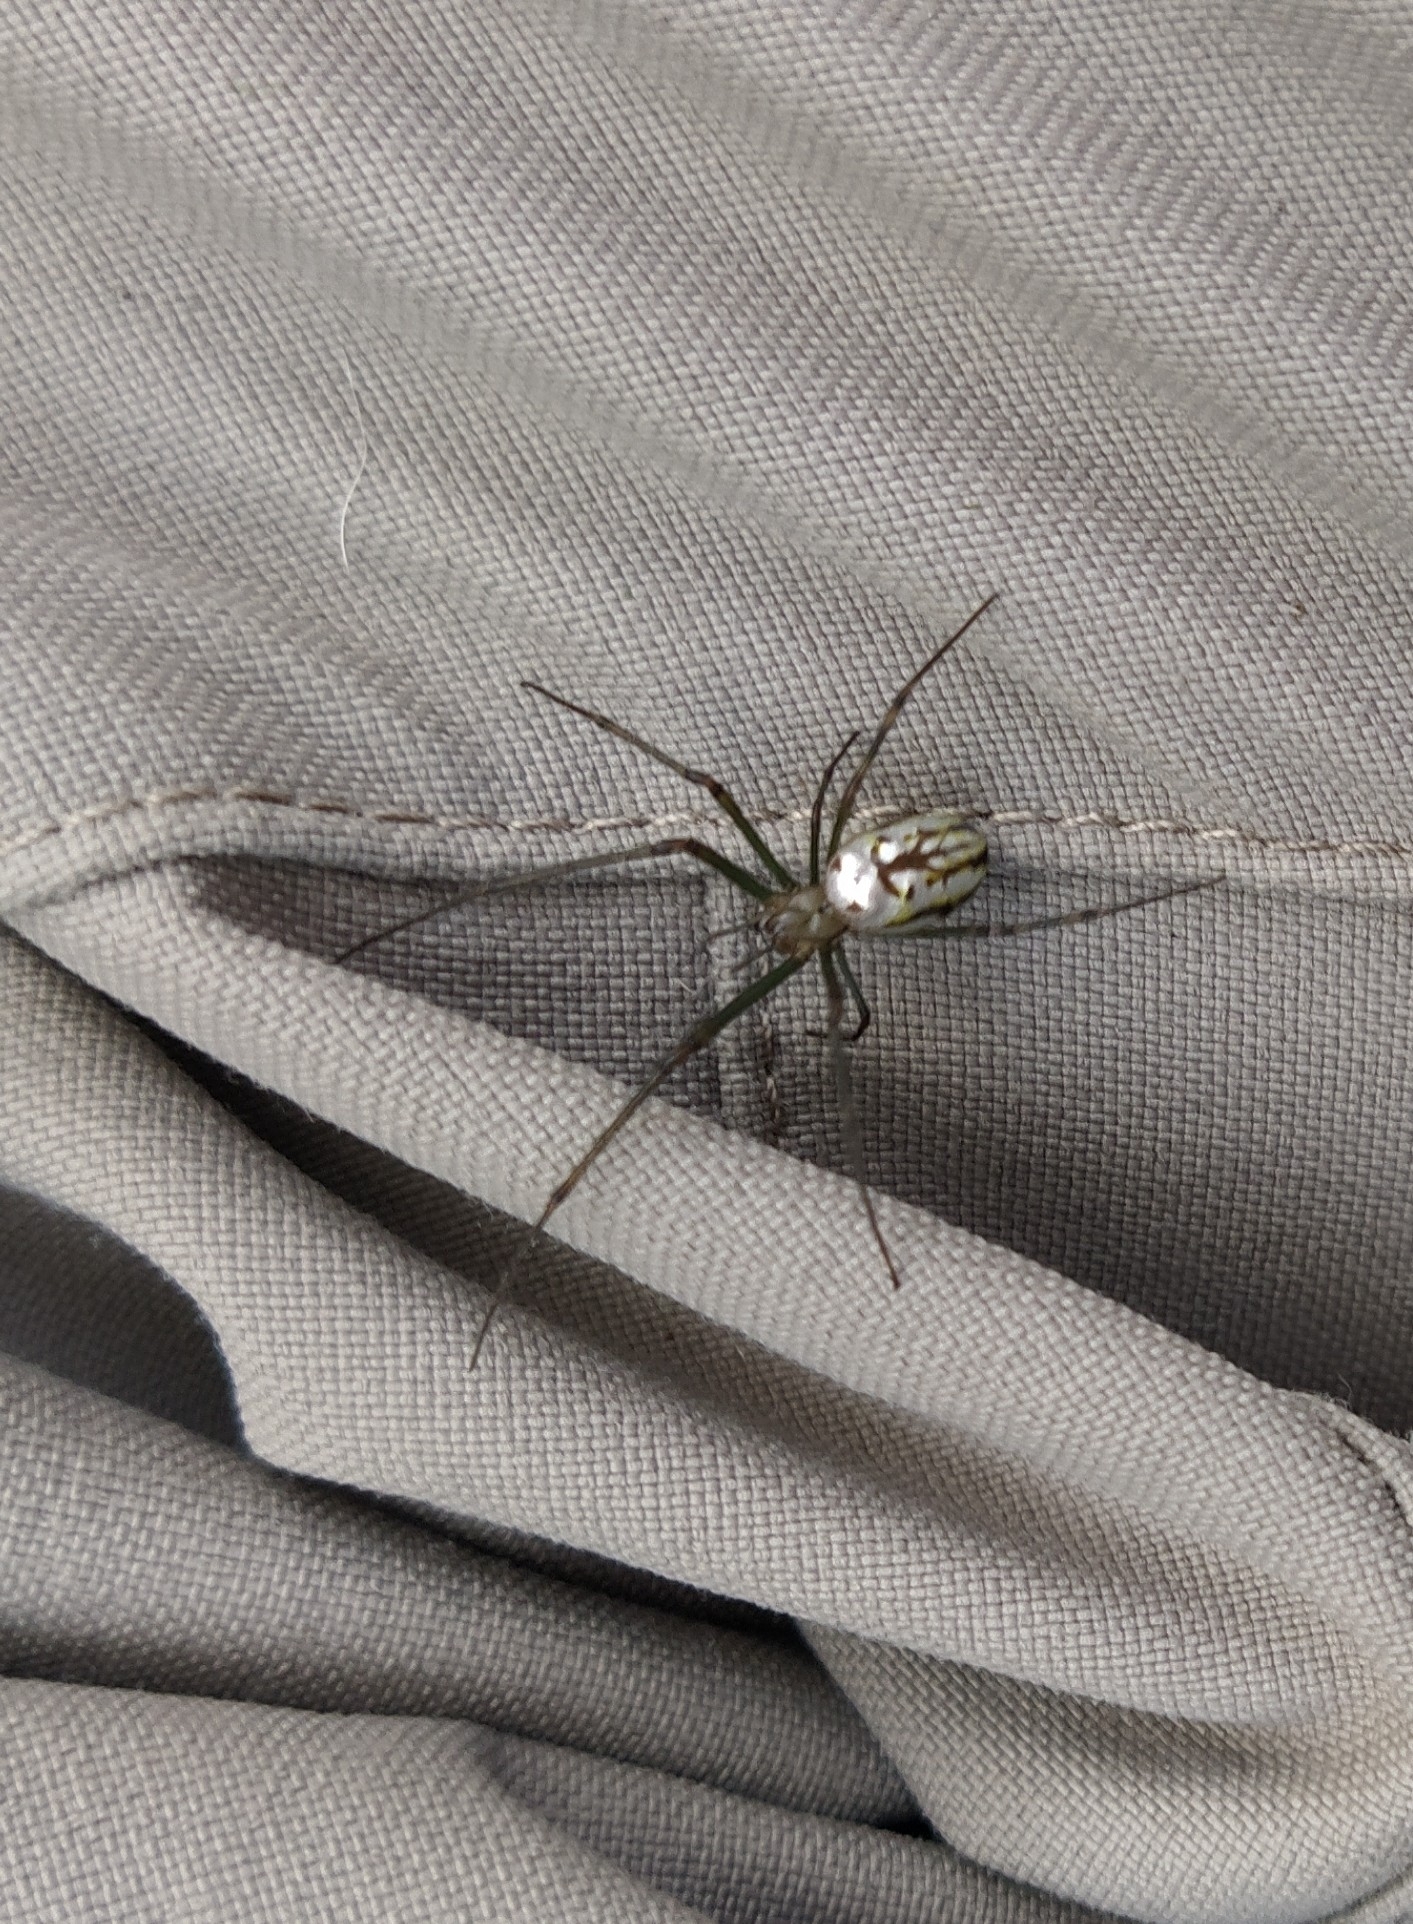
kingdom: Animalia
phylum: Arthropoda
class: Arachnida
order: Araneae
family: Tetragnathidae
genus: Leucauge
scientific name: Leucauge dromedaria
